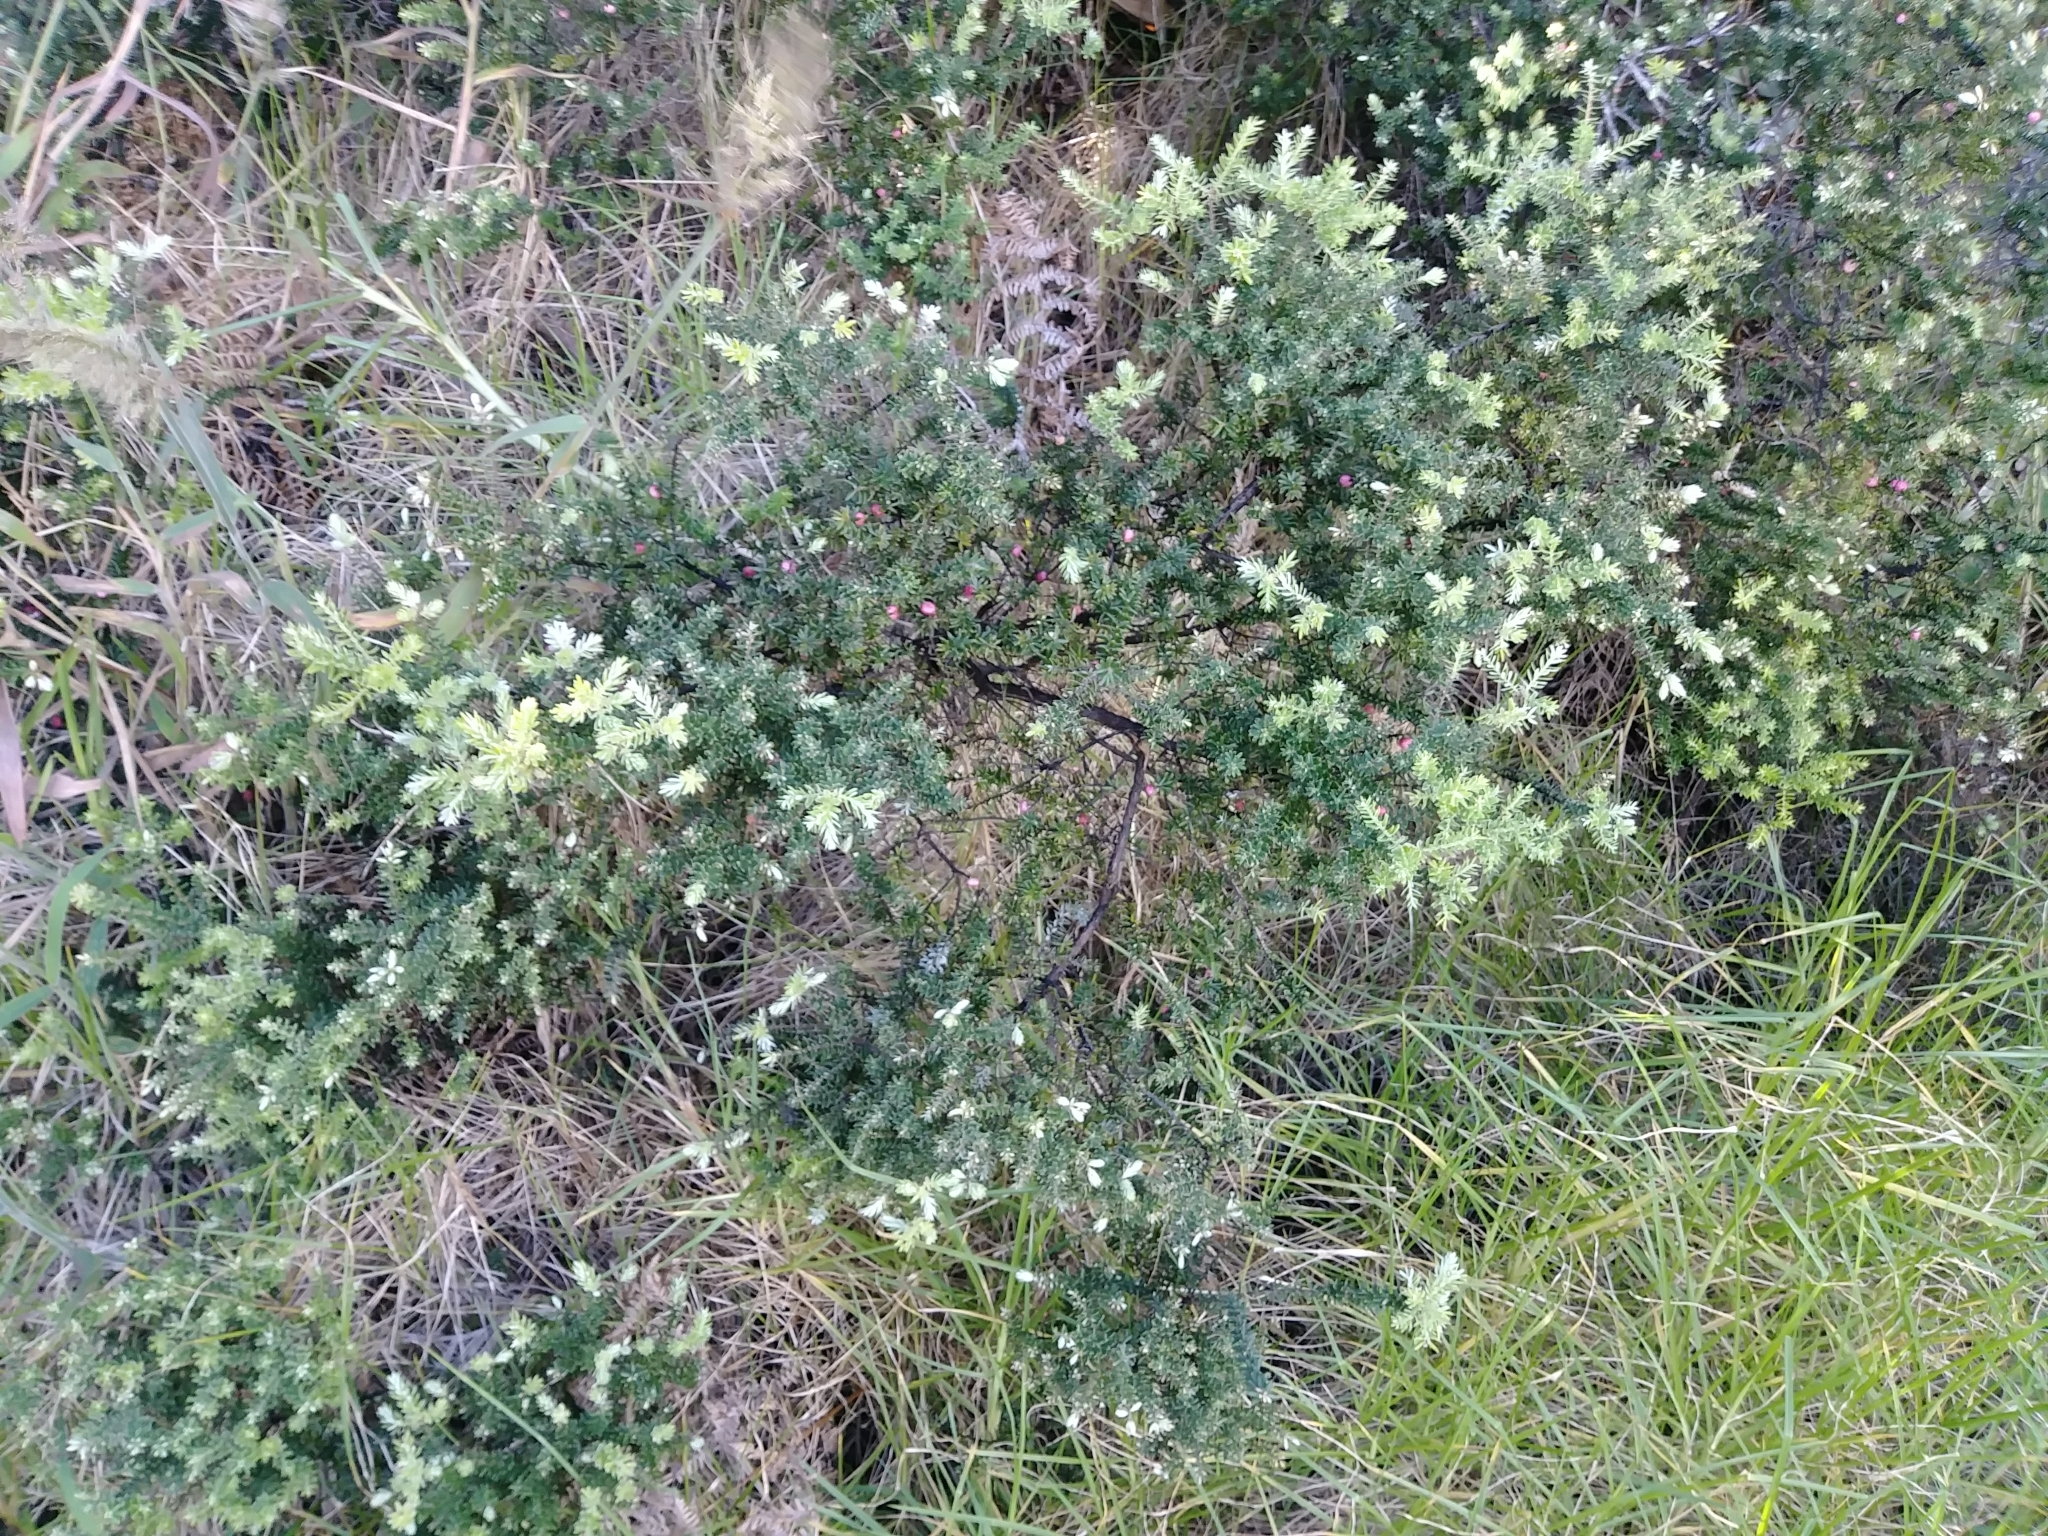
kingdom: Plantae
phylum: Tracheophyta
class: Magnoliopsida
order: Ericales
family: Ericaceae
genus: Leptecophylla
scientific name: Leptecophylla tameiameiae
